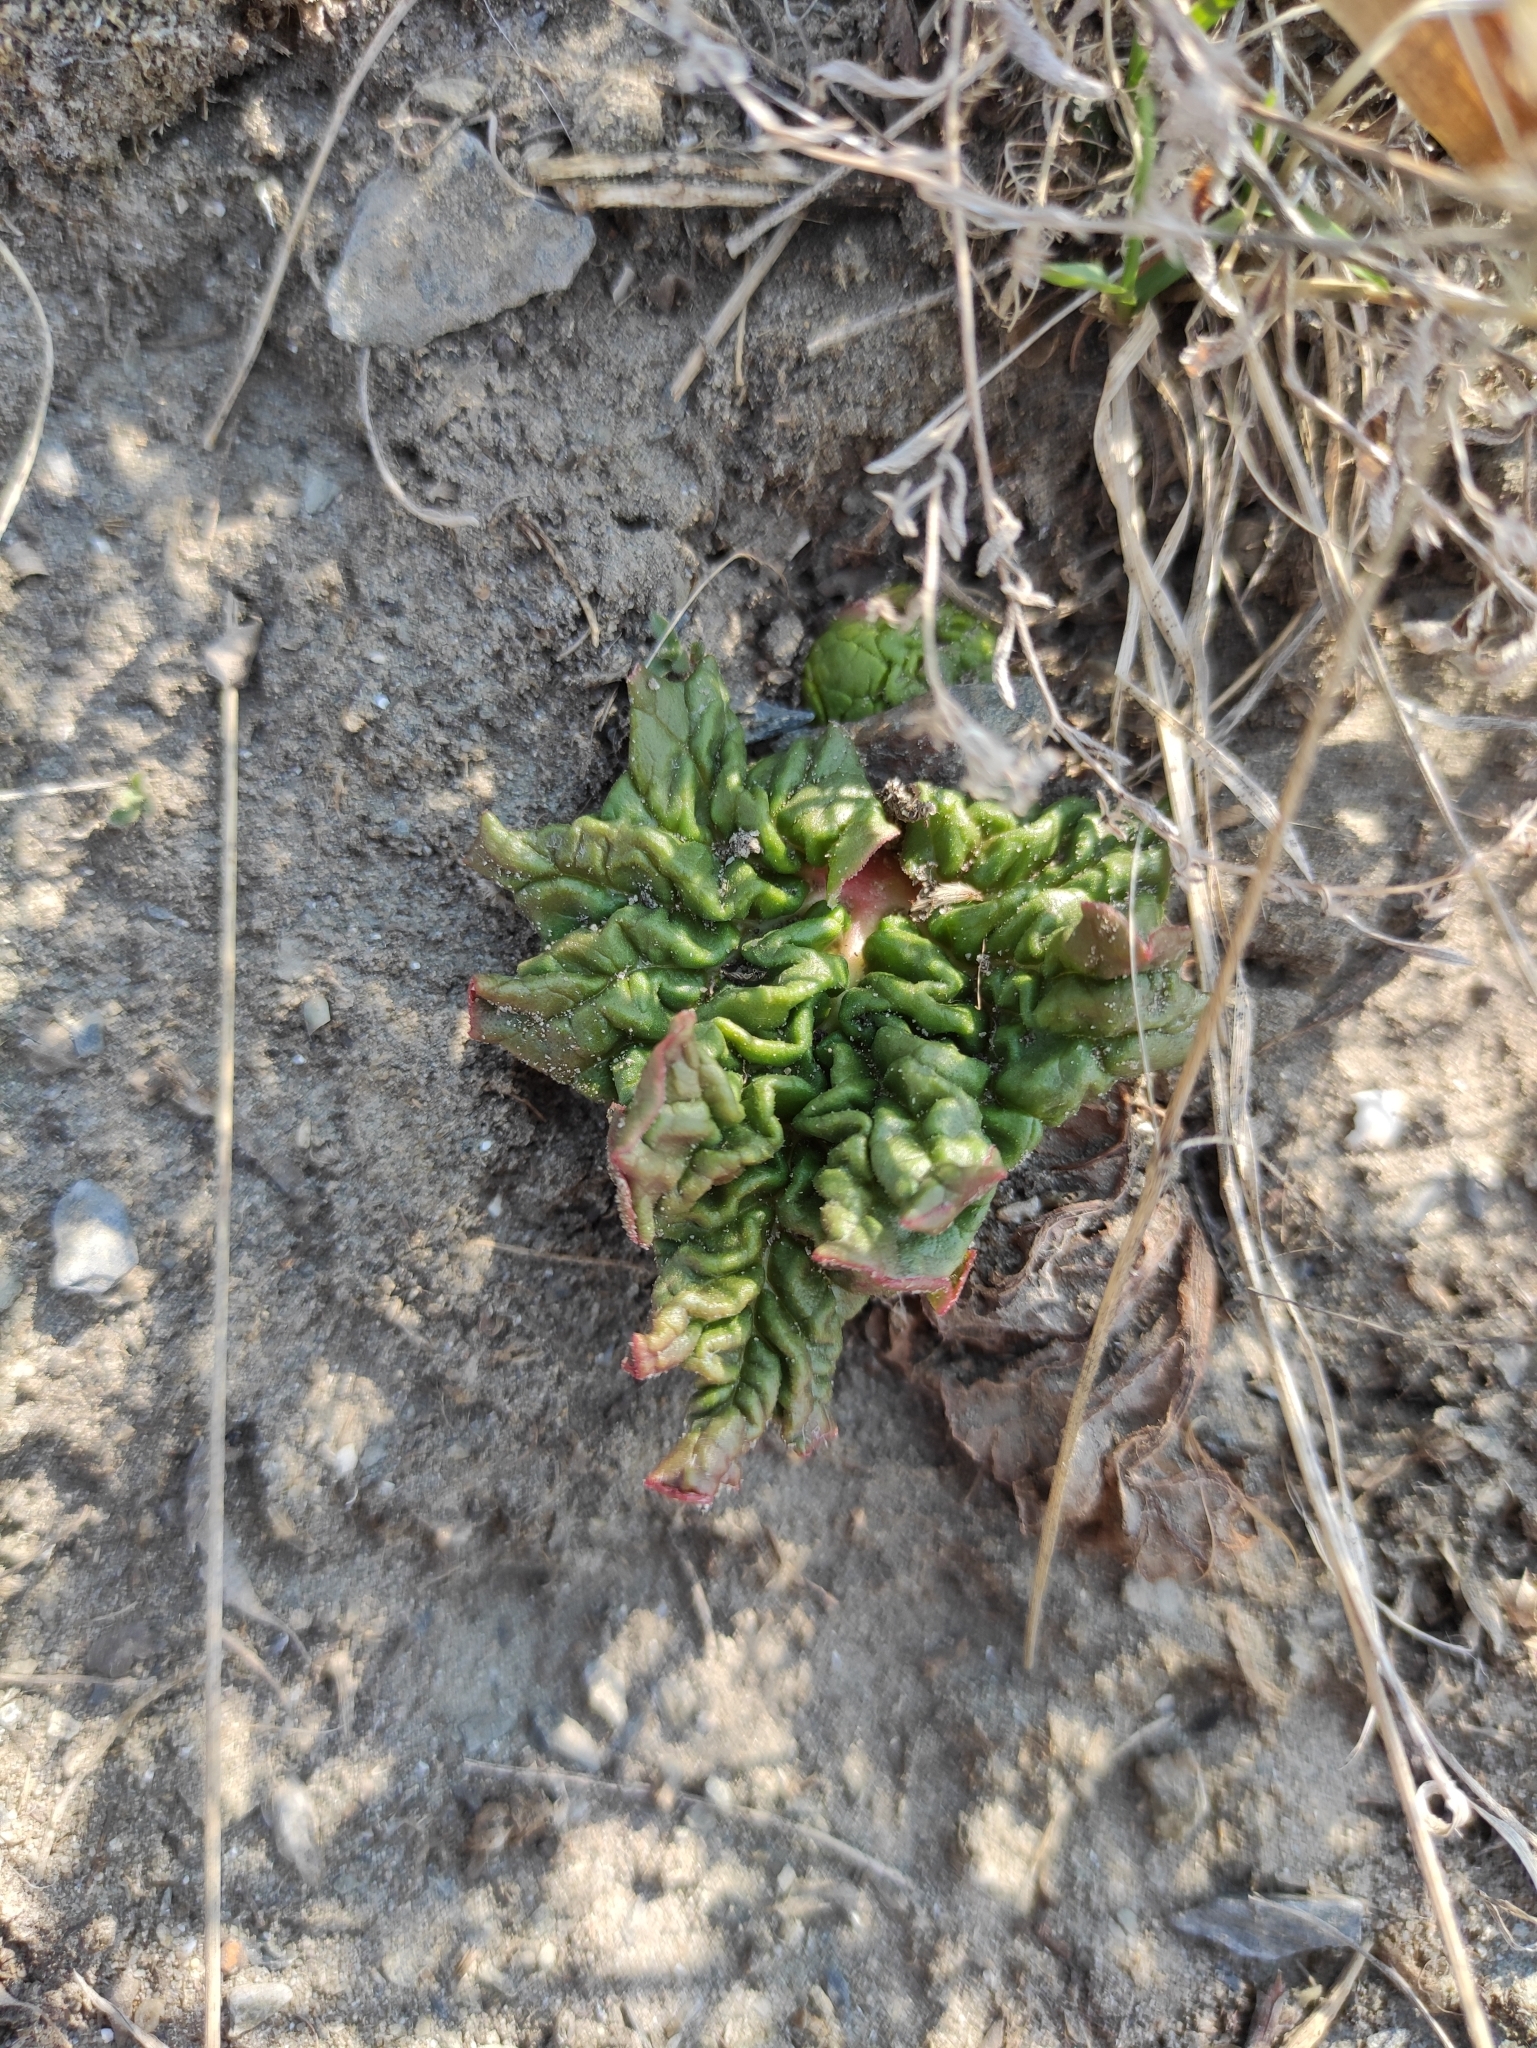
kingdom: Plantae
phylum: Tracheophyta
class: Magnoliopsida
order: Caryophyllales
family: Polygonaceae
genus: Rheum
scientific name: Rheum rhabarbarum
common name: Garden rhubarb
